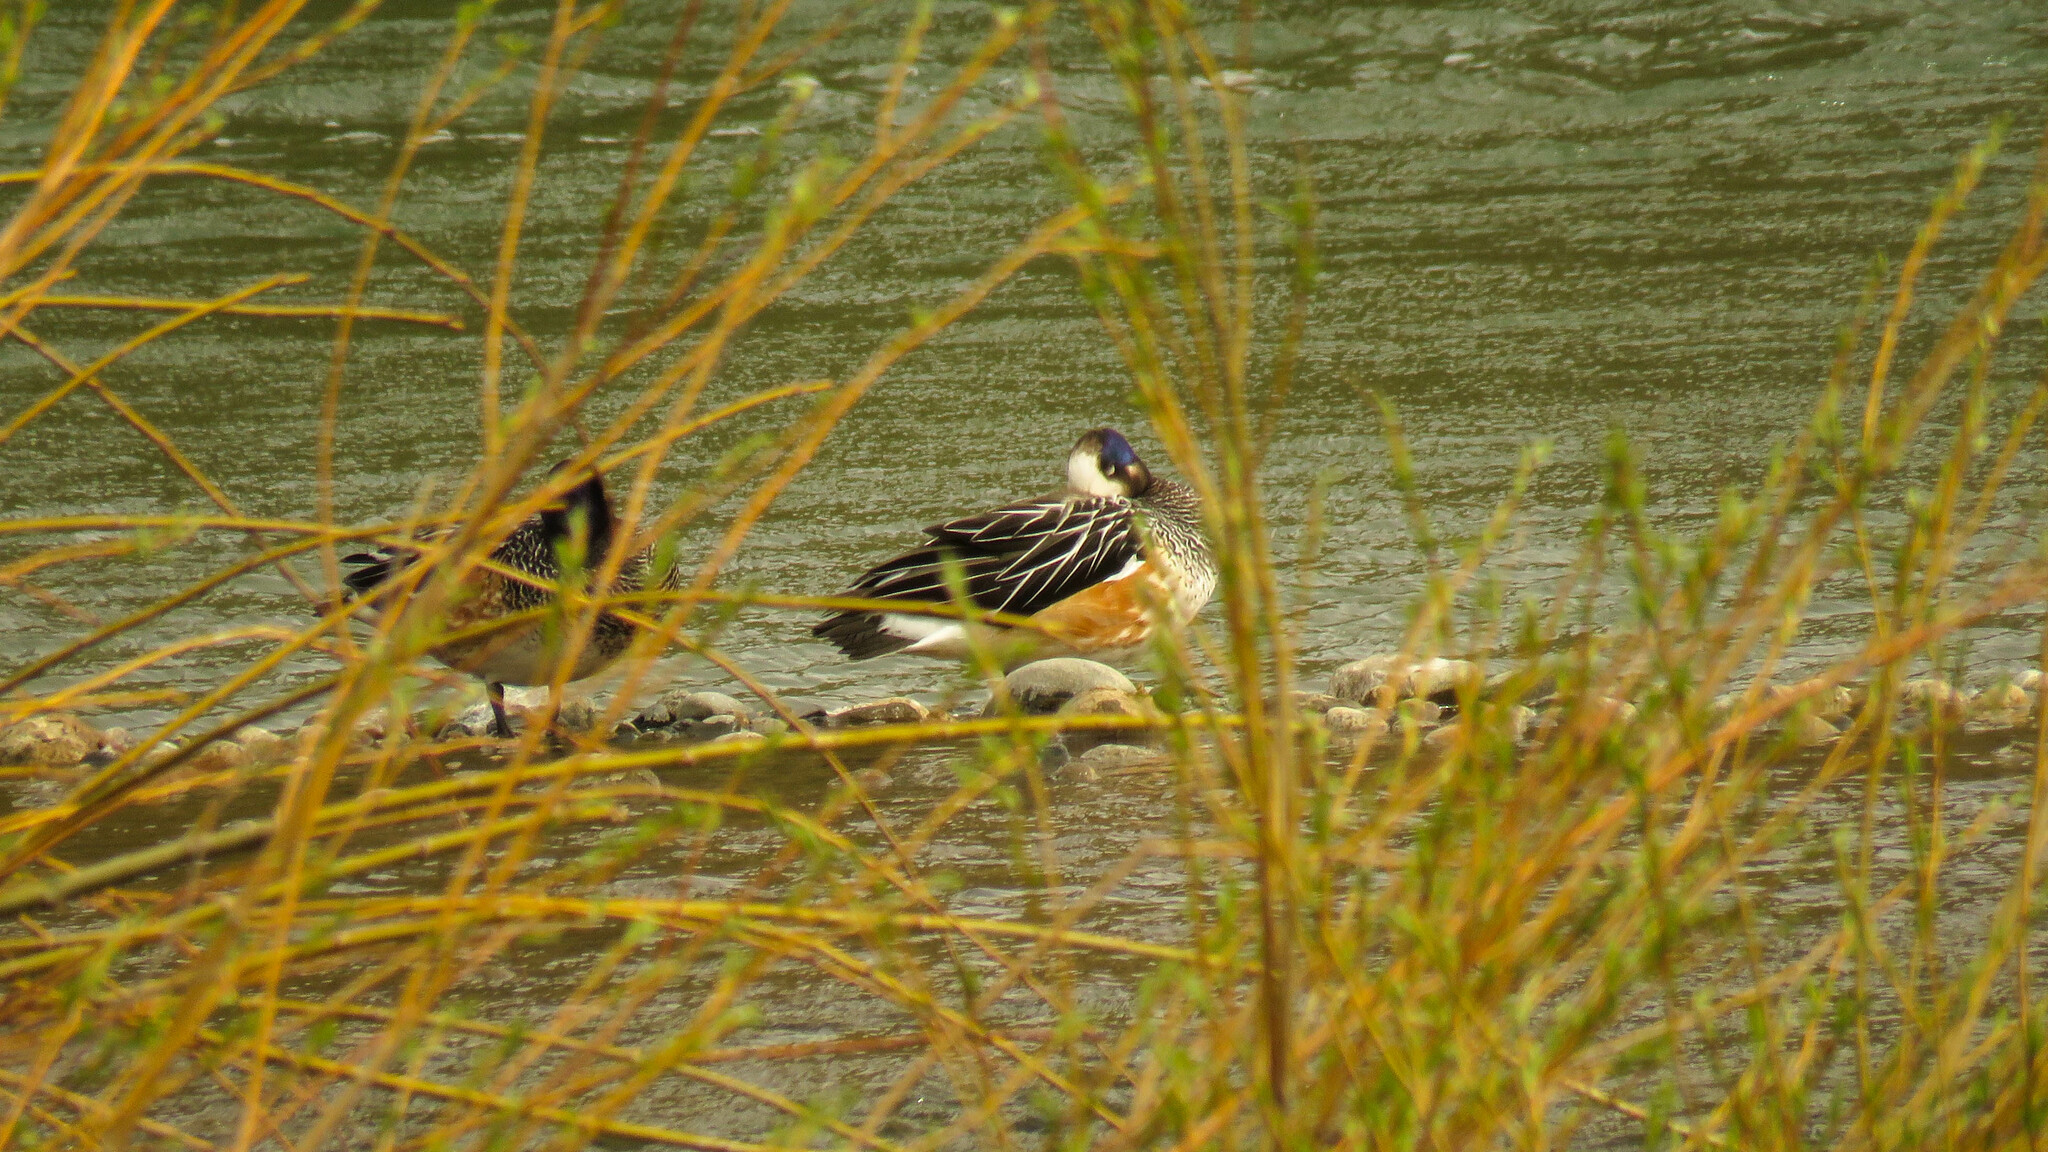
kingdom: Animalia
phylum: Chordata
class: Aves
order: Anseriformes
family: Anatidae
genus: Mareca
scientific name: Mareca sibilatrix
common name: Chiloe wigeon
